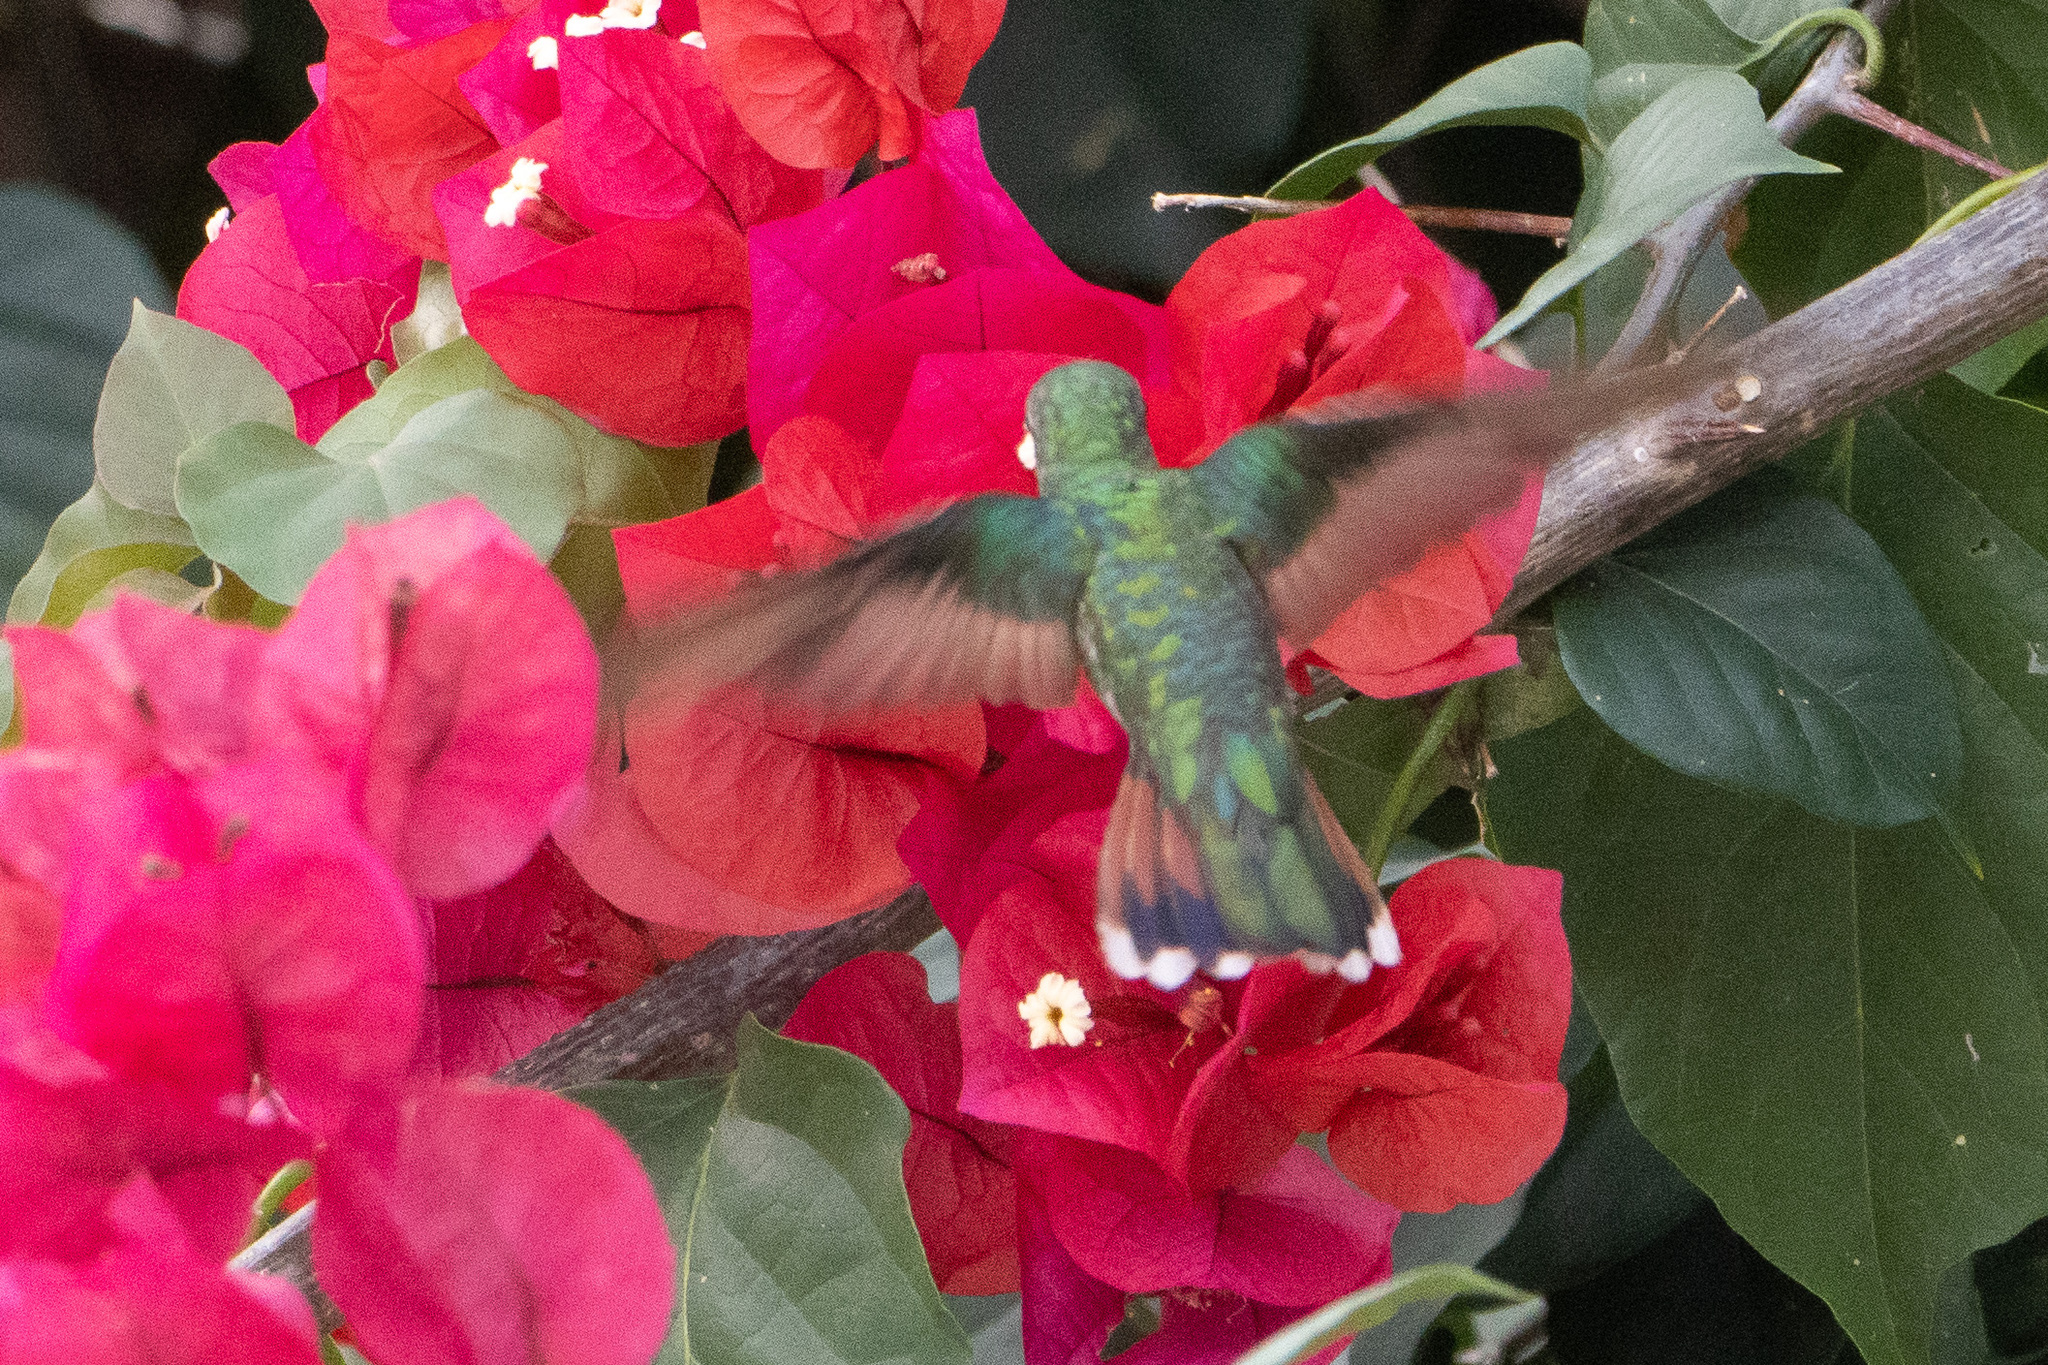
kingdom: Animalia
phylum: Chordata
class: Aves
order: Apodiformes
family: Trochilidae
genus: Anthracothorax
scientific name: Anthracothorax prevostii
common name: Green-breasted mango
